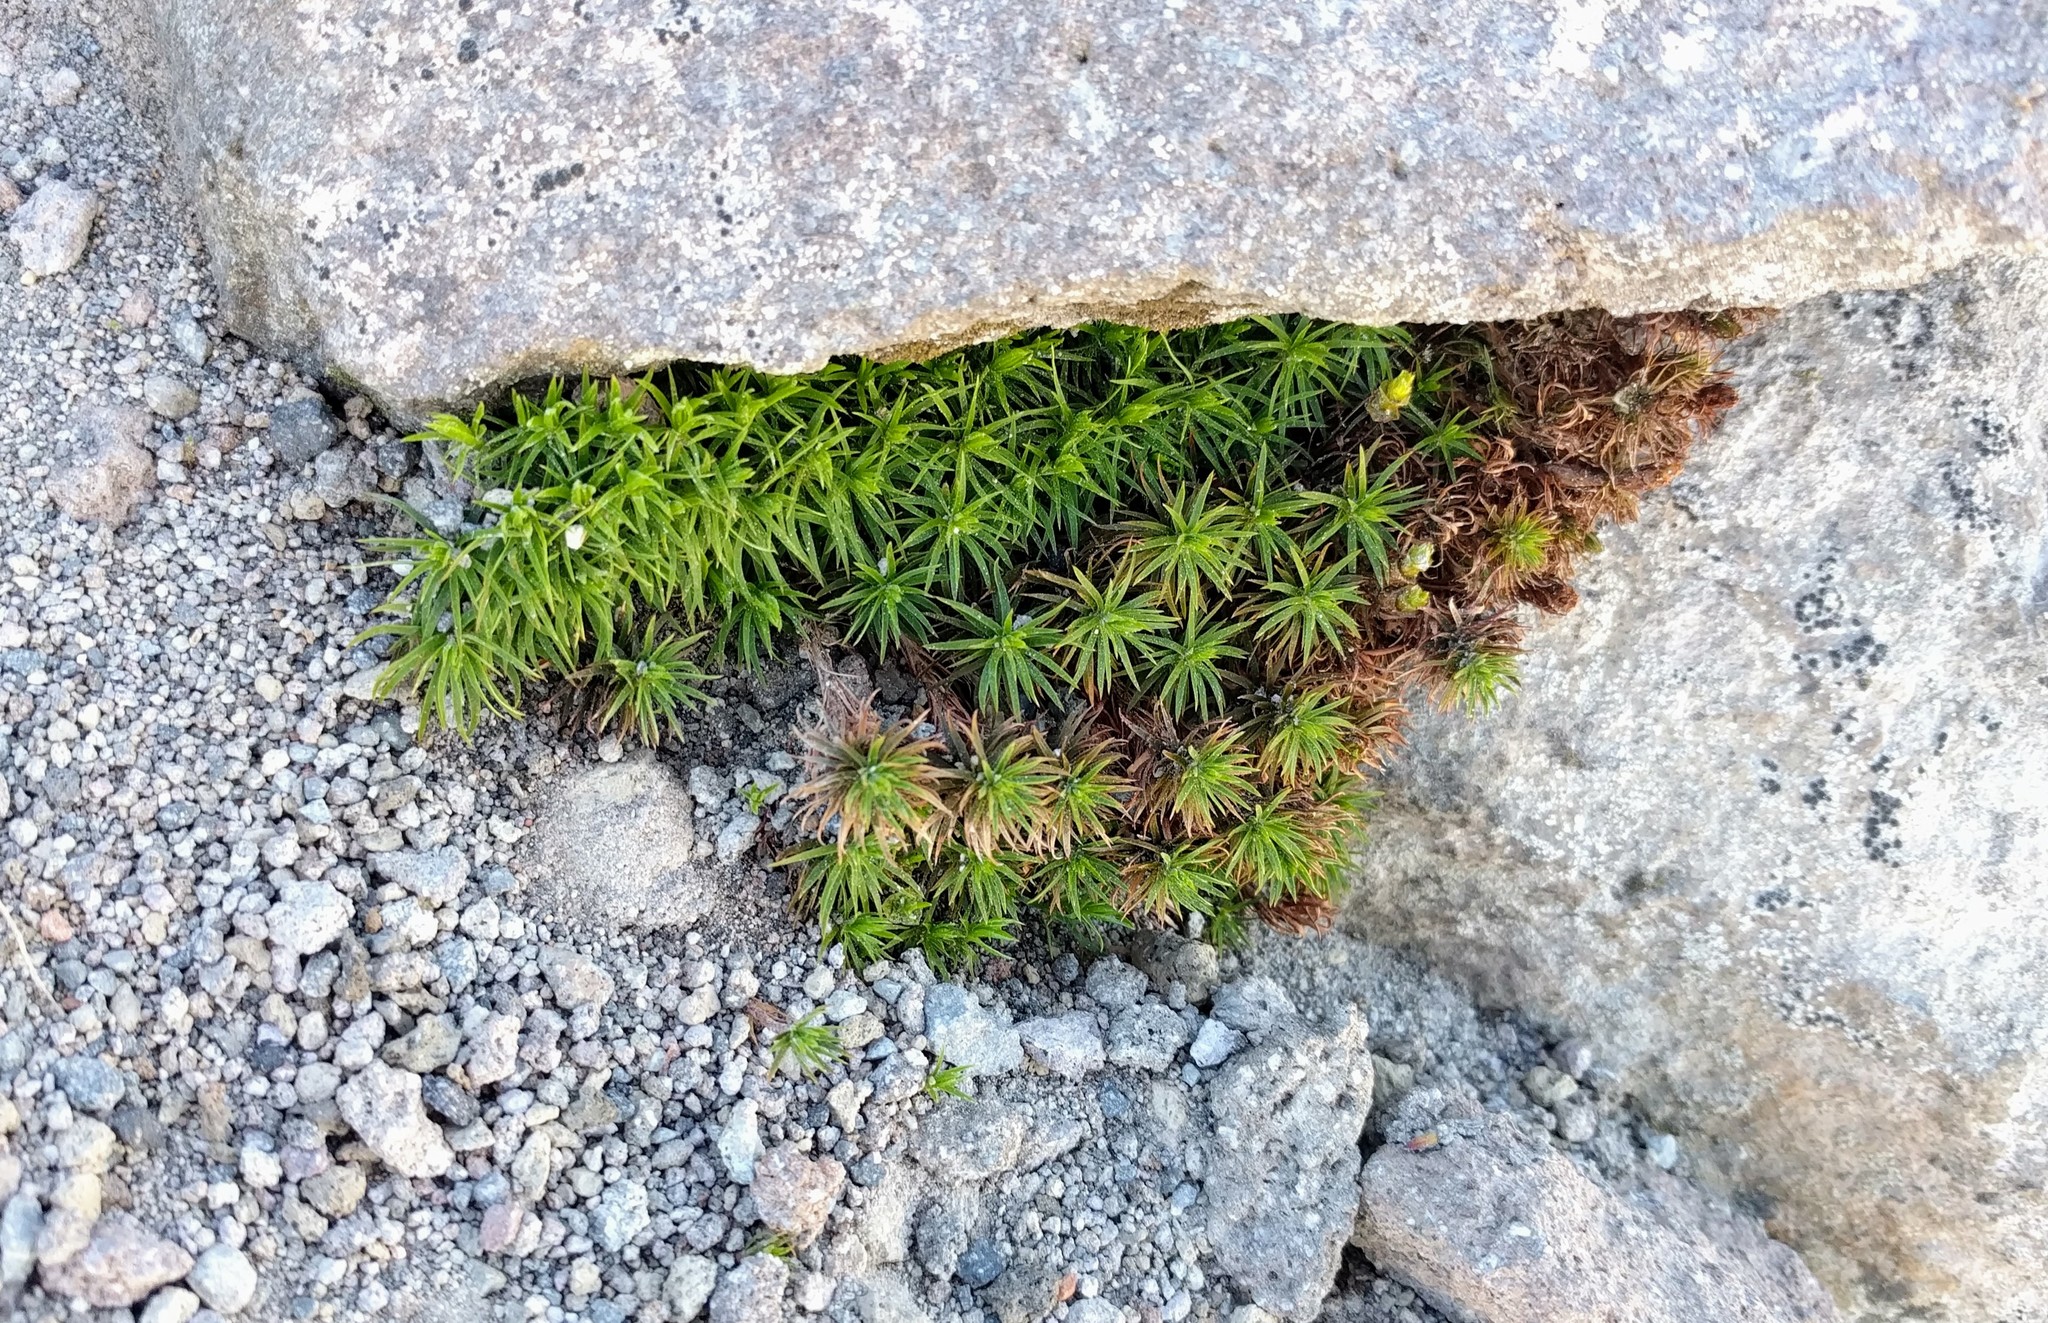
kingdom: Plantae
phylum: Bryophyta
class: Polytrichopsida
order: Polytrichales
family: Polytrichaceae
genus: Polytrichum
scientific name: Polytrichum juniperinum
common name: Juniper haircap moss
